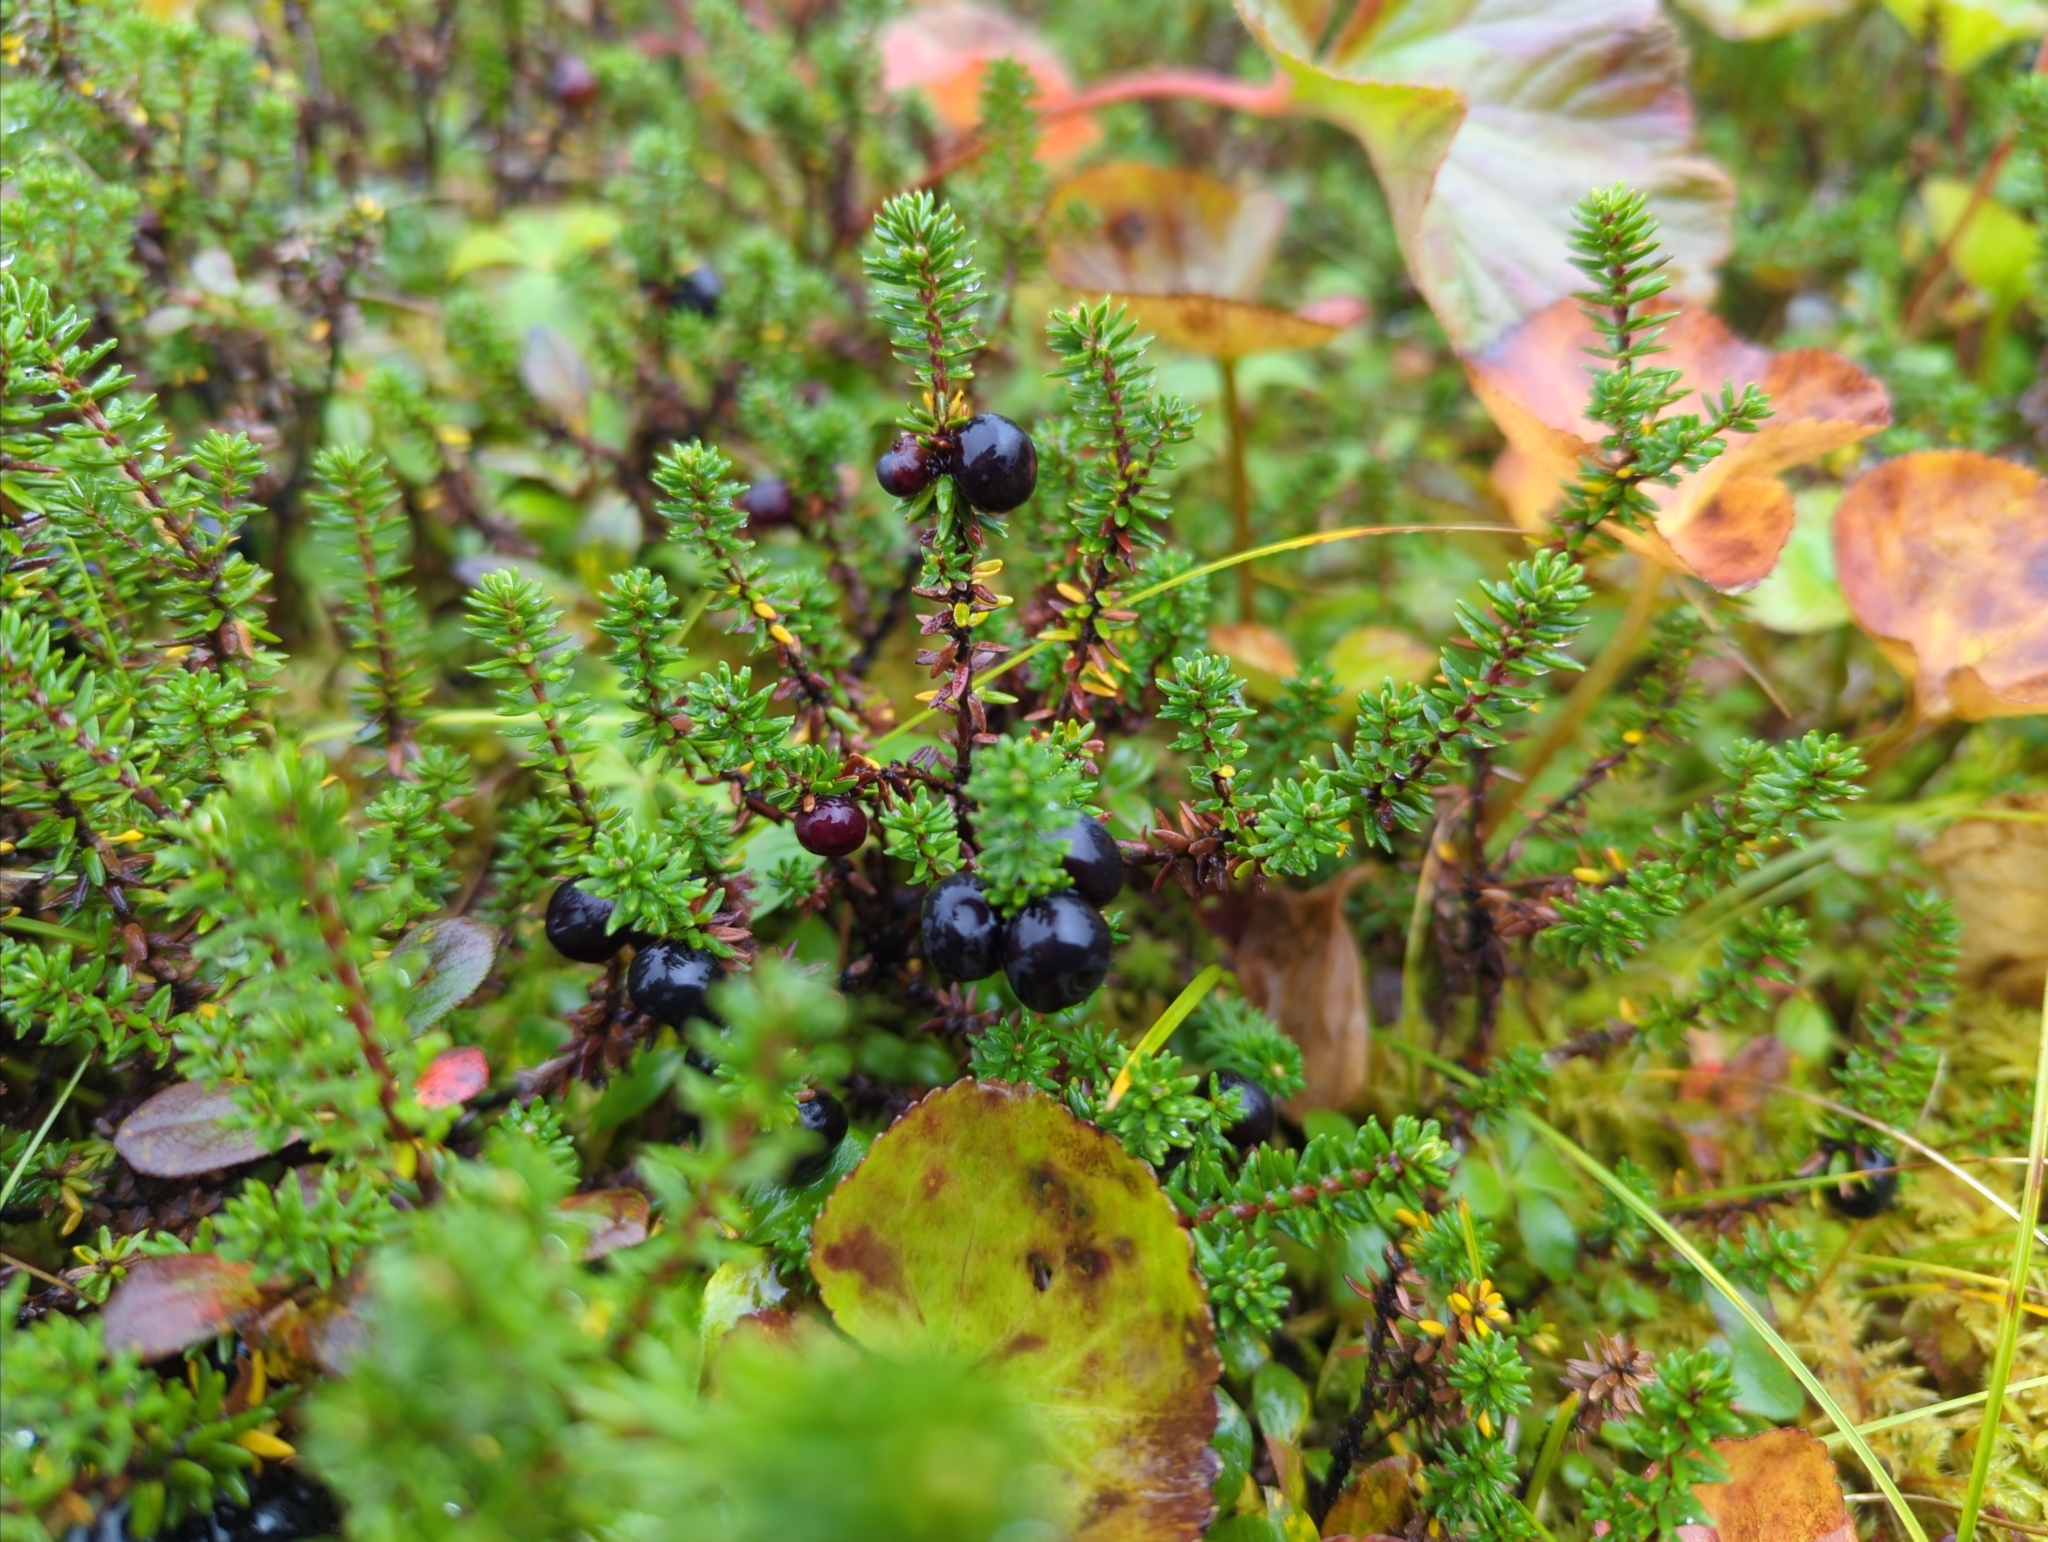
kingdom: Plantae
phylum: Tracheophyta
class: Magnoliopsida
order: Ericales
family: Ericaceae
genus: Empetrum
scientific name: Empetrum nigrum
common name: Black crowberry
